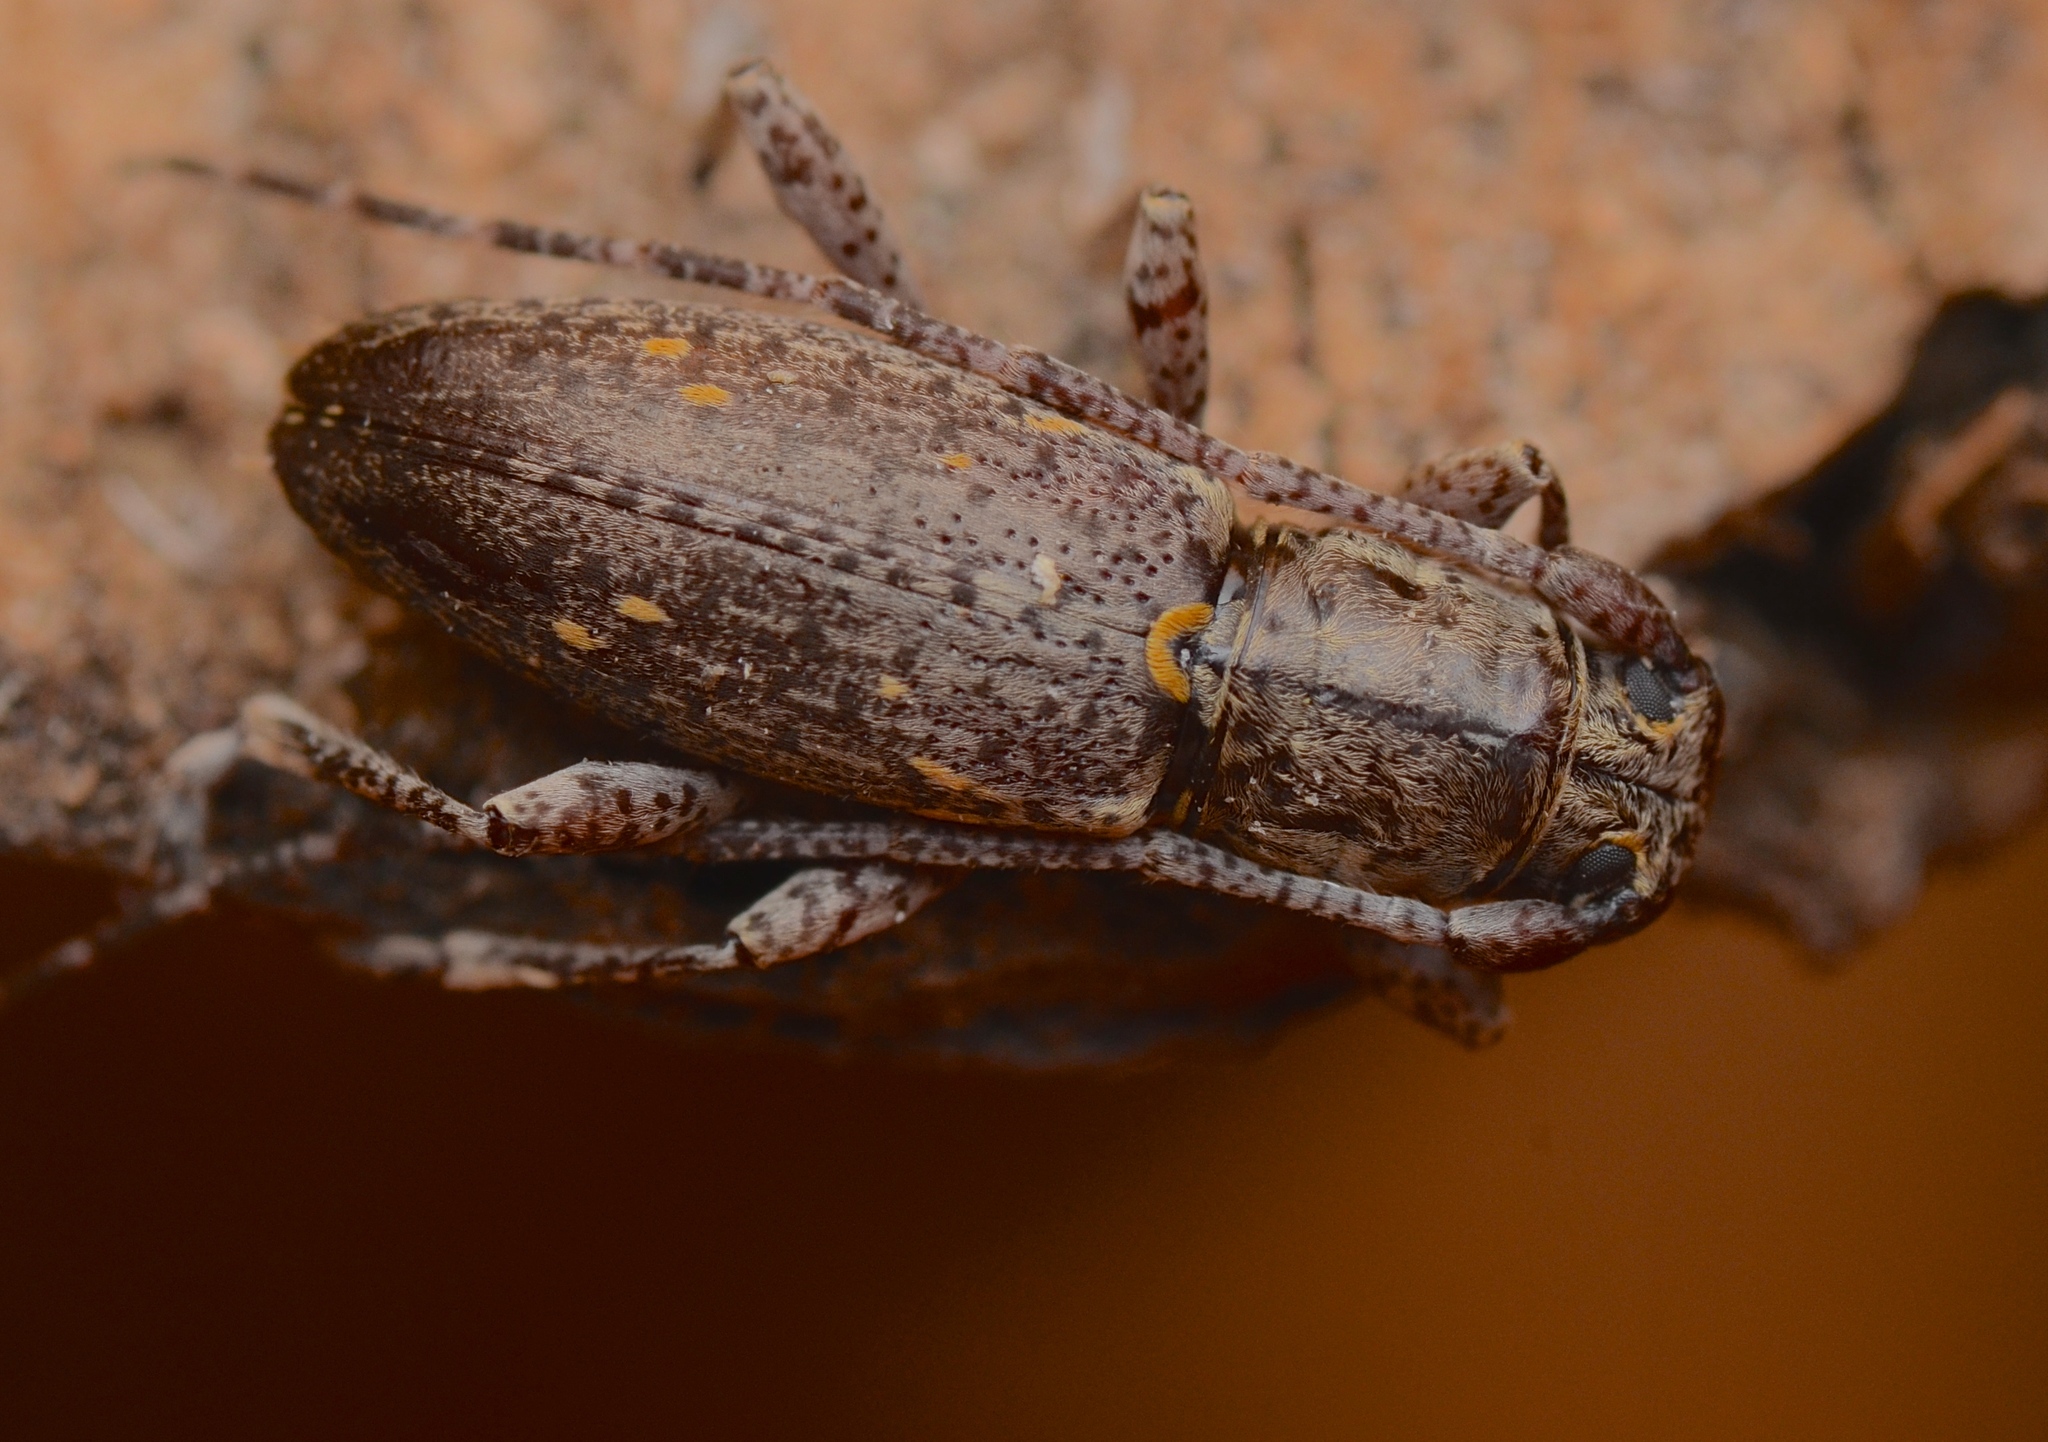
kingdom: Animalia
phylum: Arthropoda
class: Insecta
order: Coleoptera
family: Cerambycidae
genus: Xylotoles
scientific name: Xylotoles griseus
